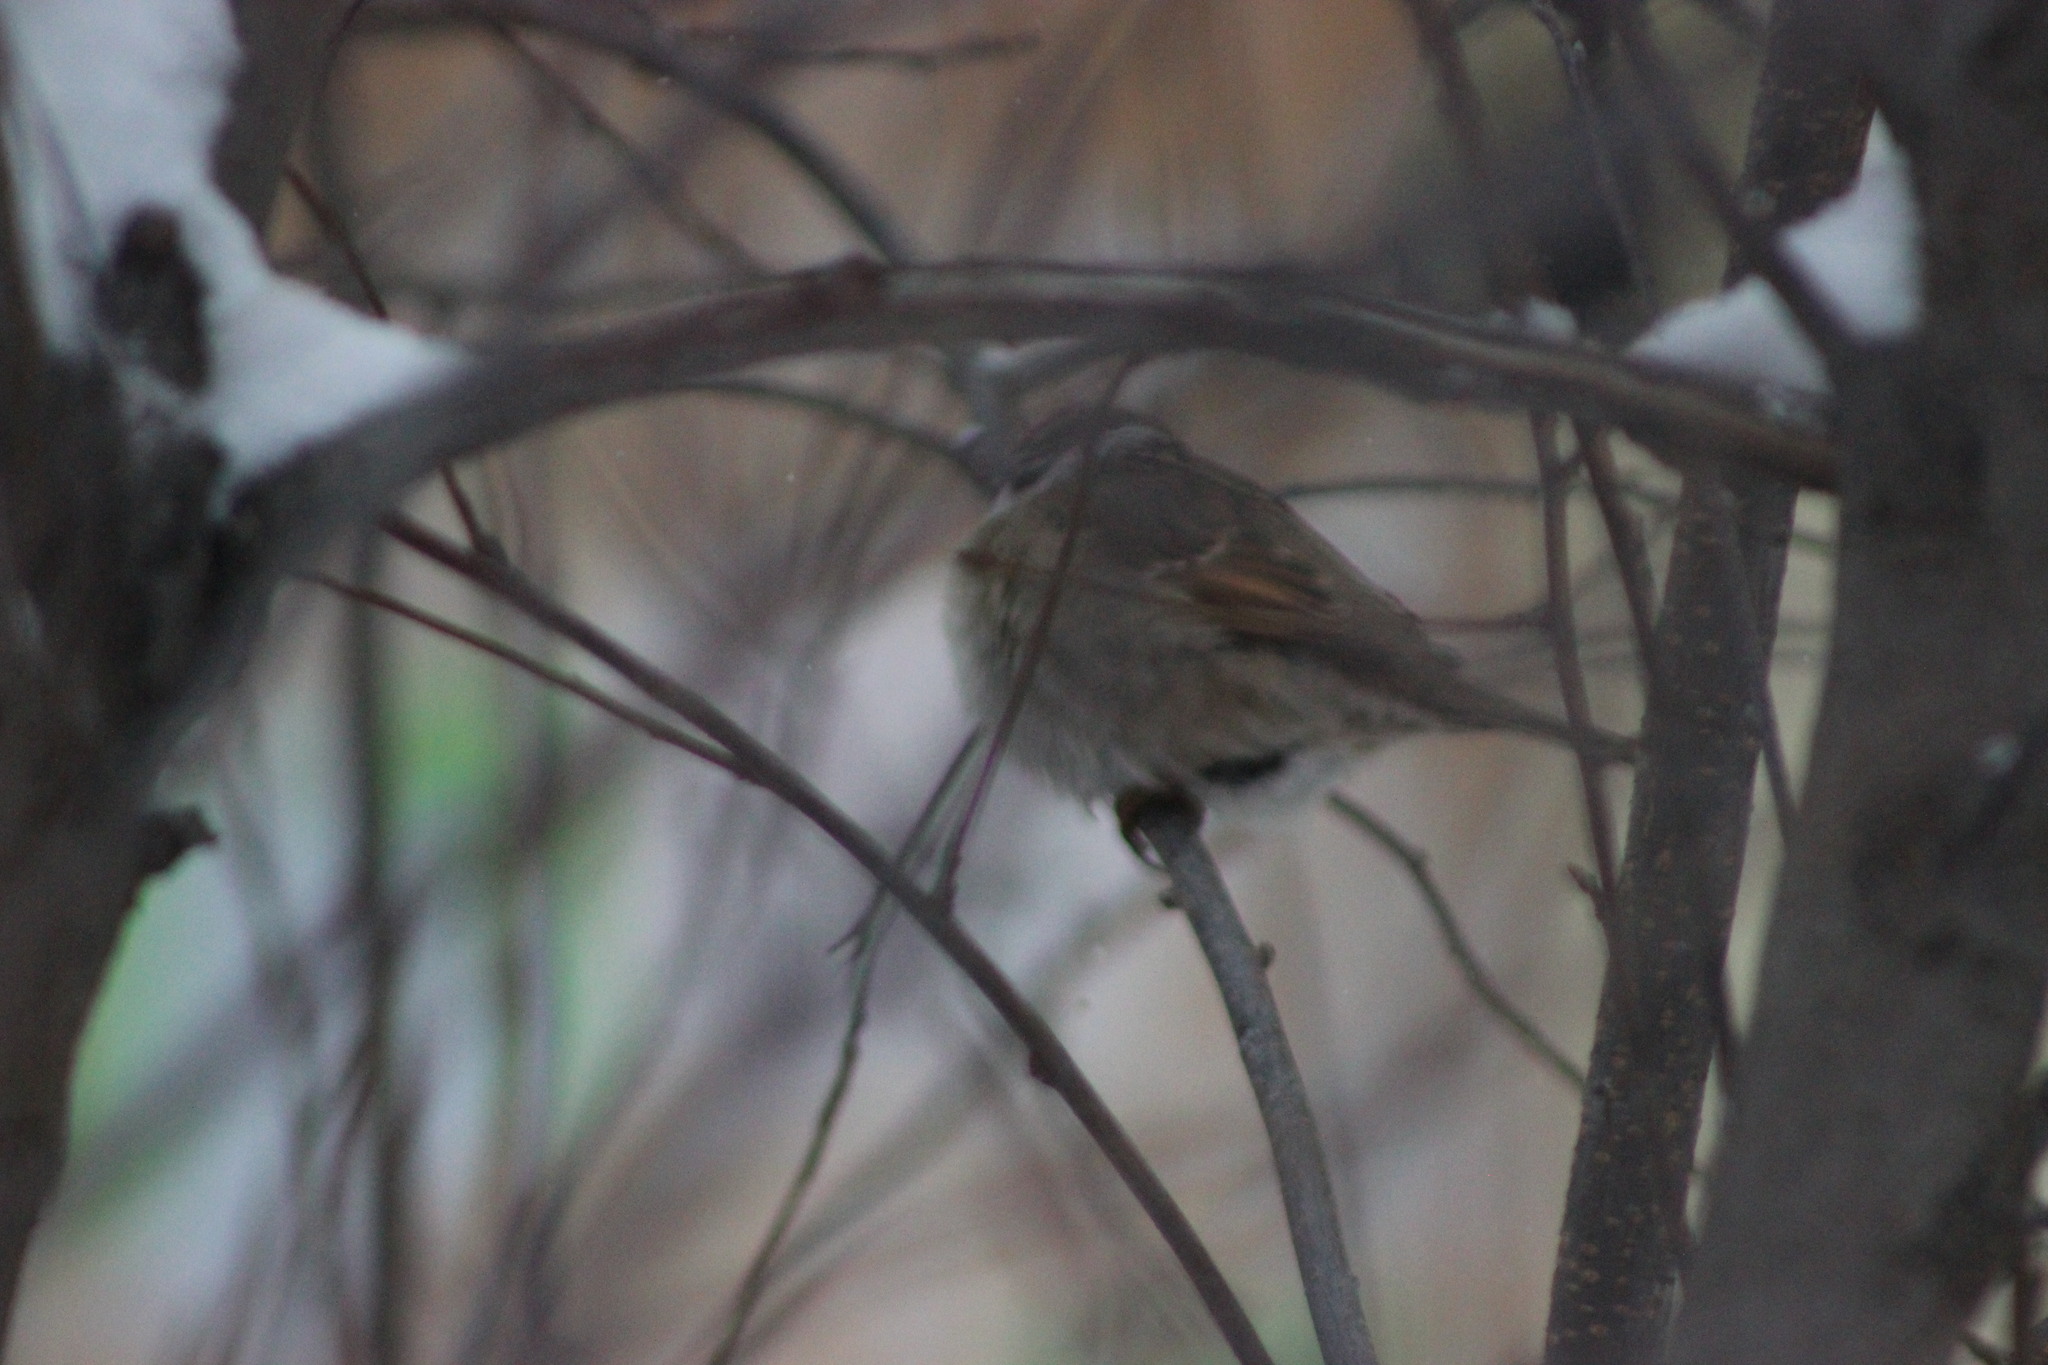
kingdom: Animalia
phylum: Chordata
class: Aves
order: Passeriformes
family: Passeridae
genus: Passer
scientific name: Passer montanus
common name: Eurasian tree sparrow
